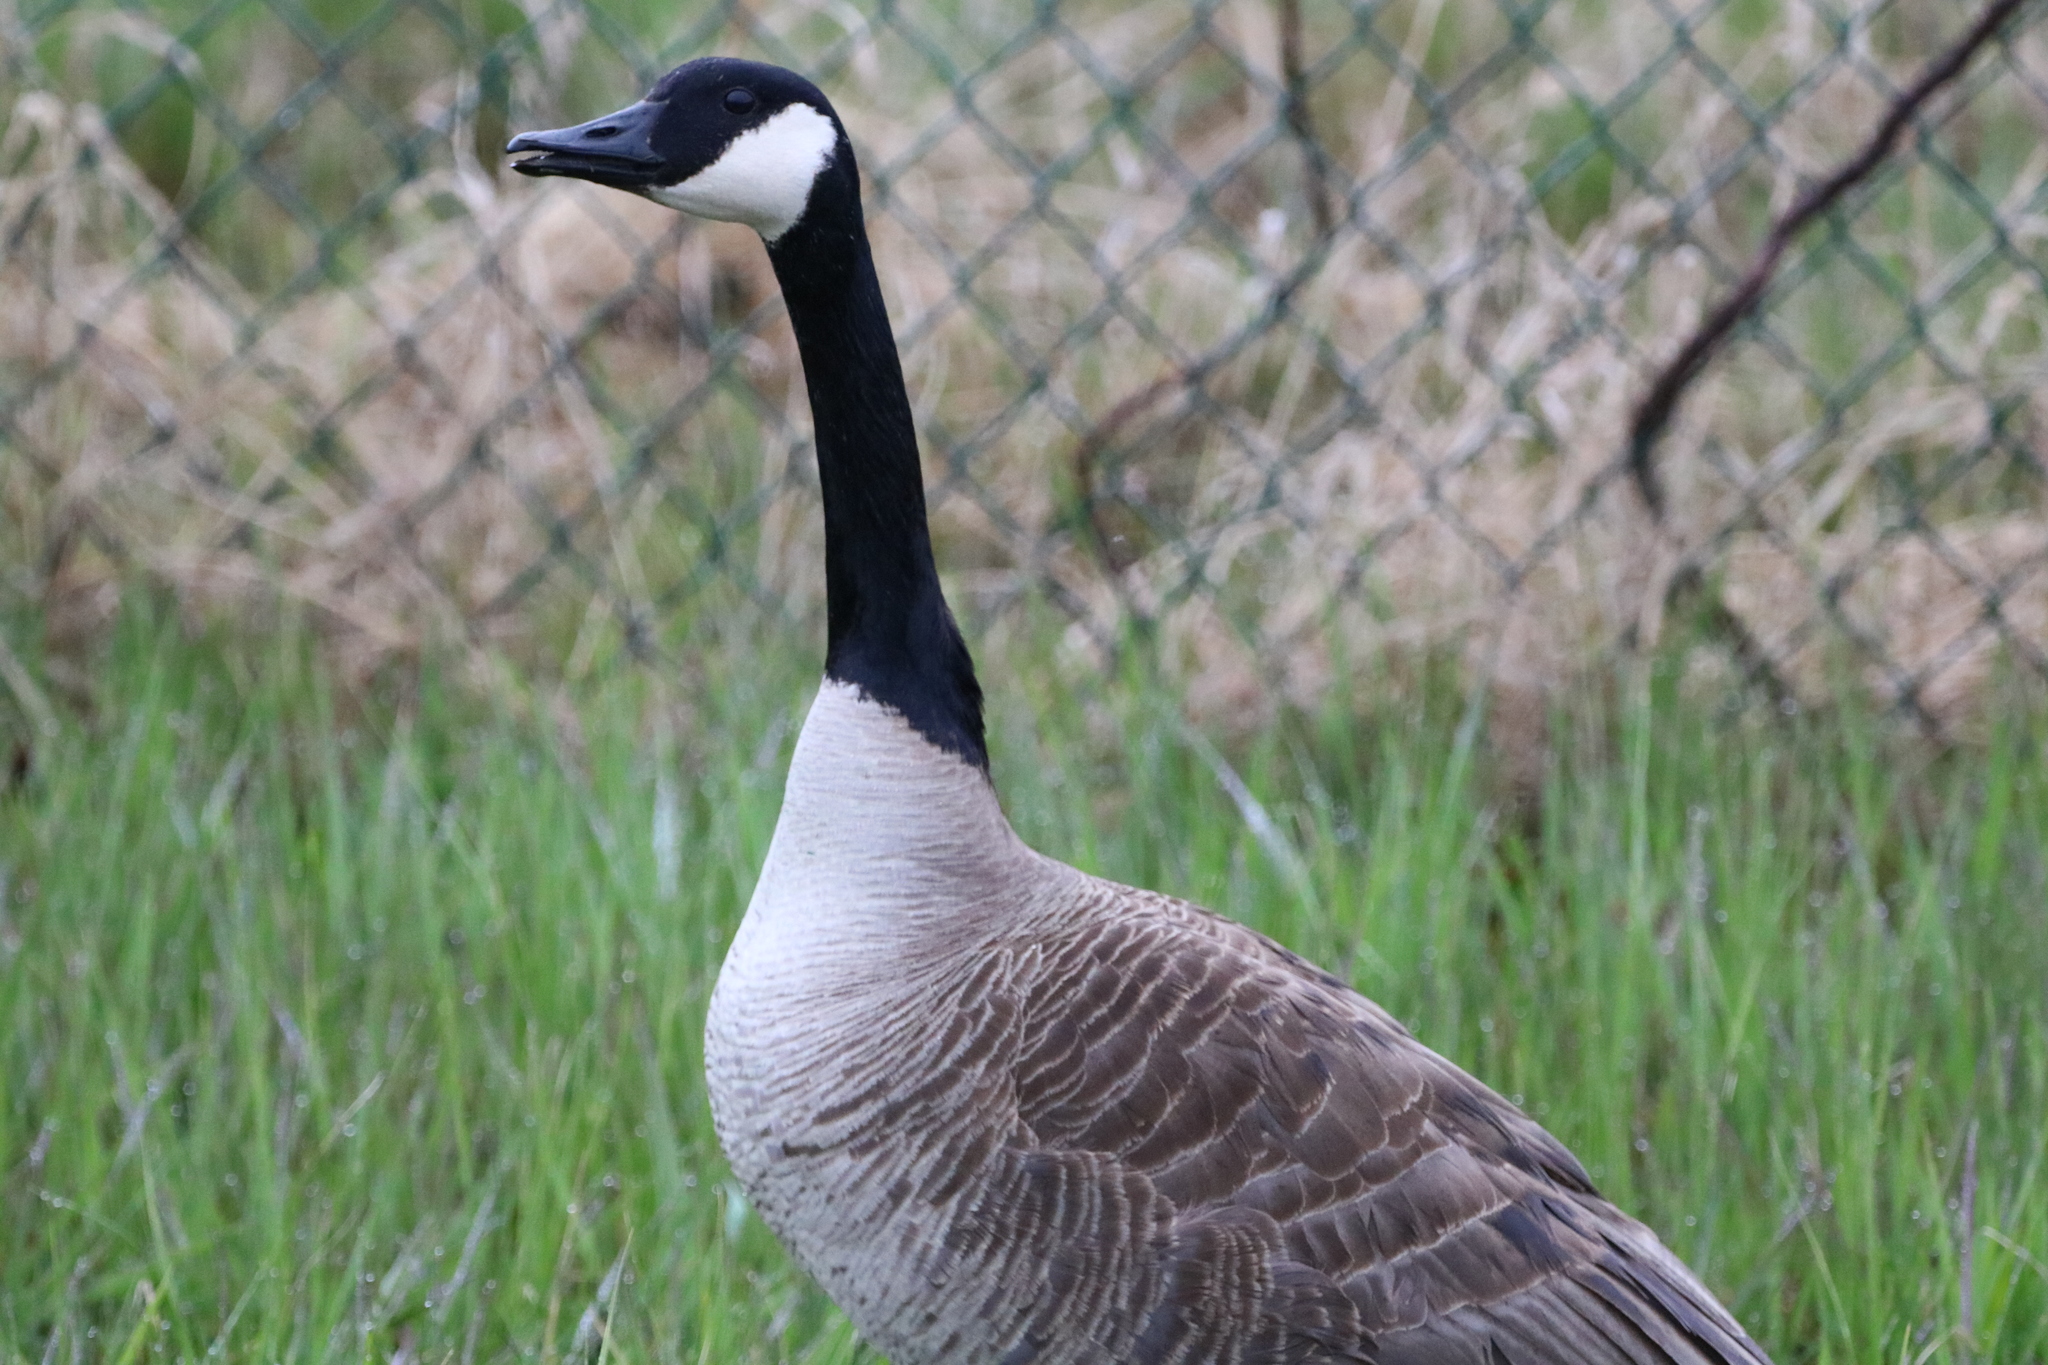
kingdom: Animalia
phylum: Chordata
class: Aves
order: Anseriformes
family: Anatidae
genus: Branta
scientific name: Branta canadensis
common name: Canada goose
